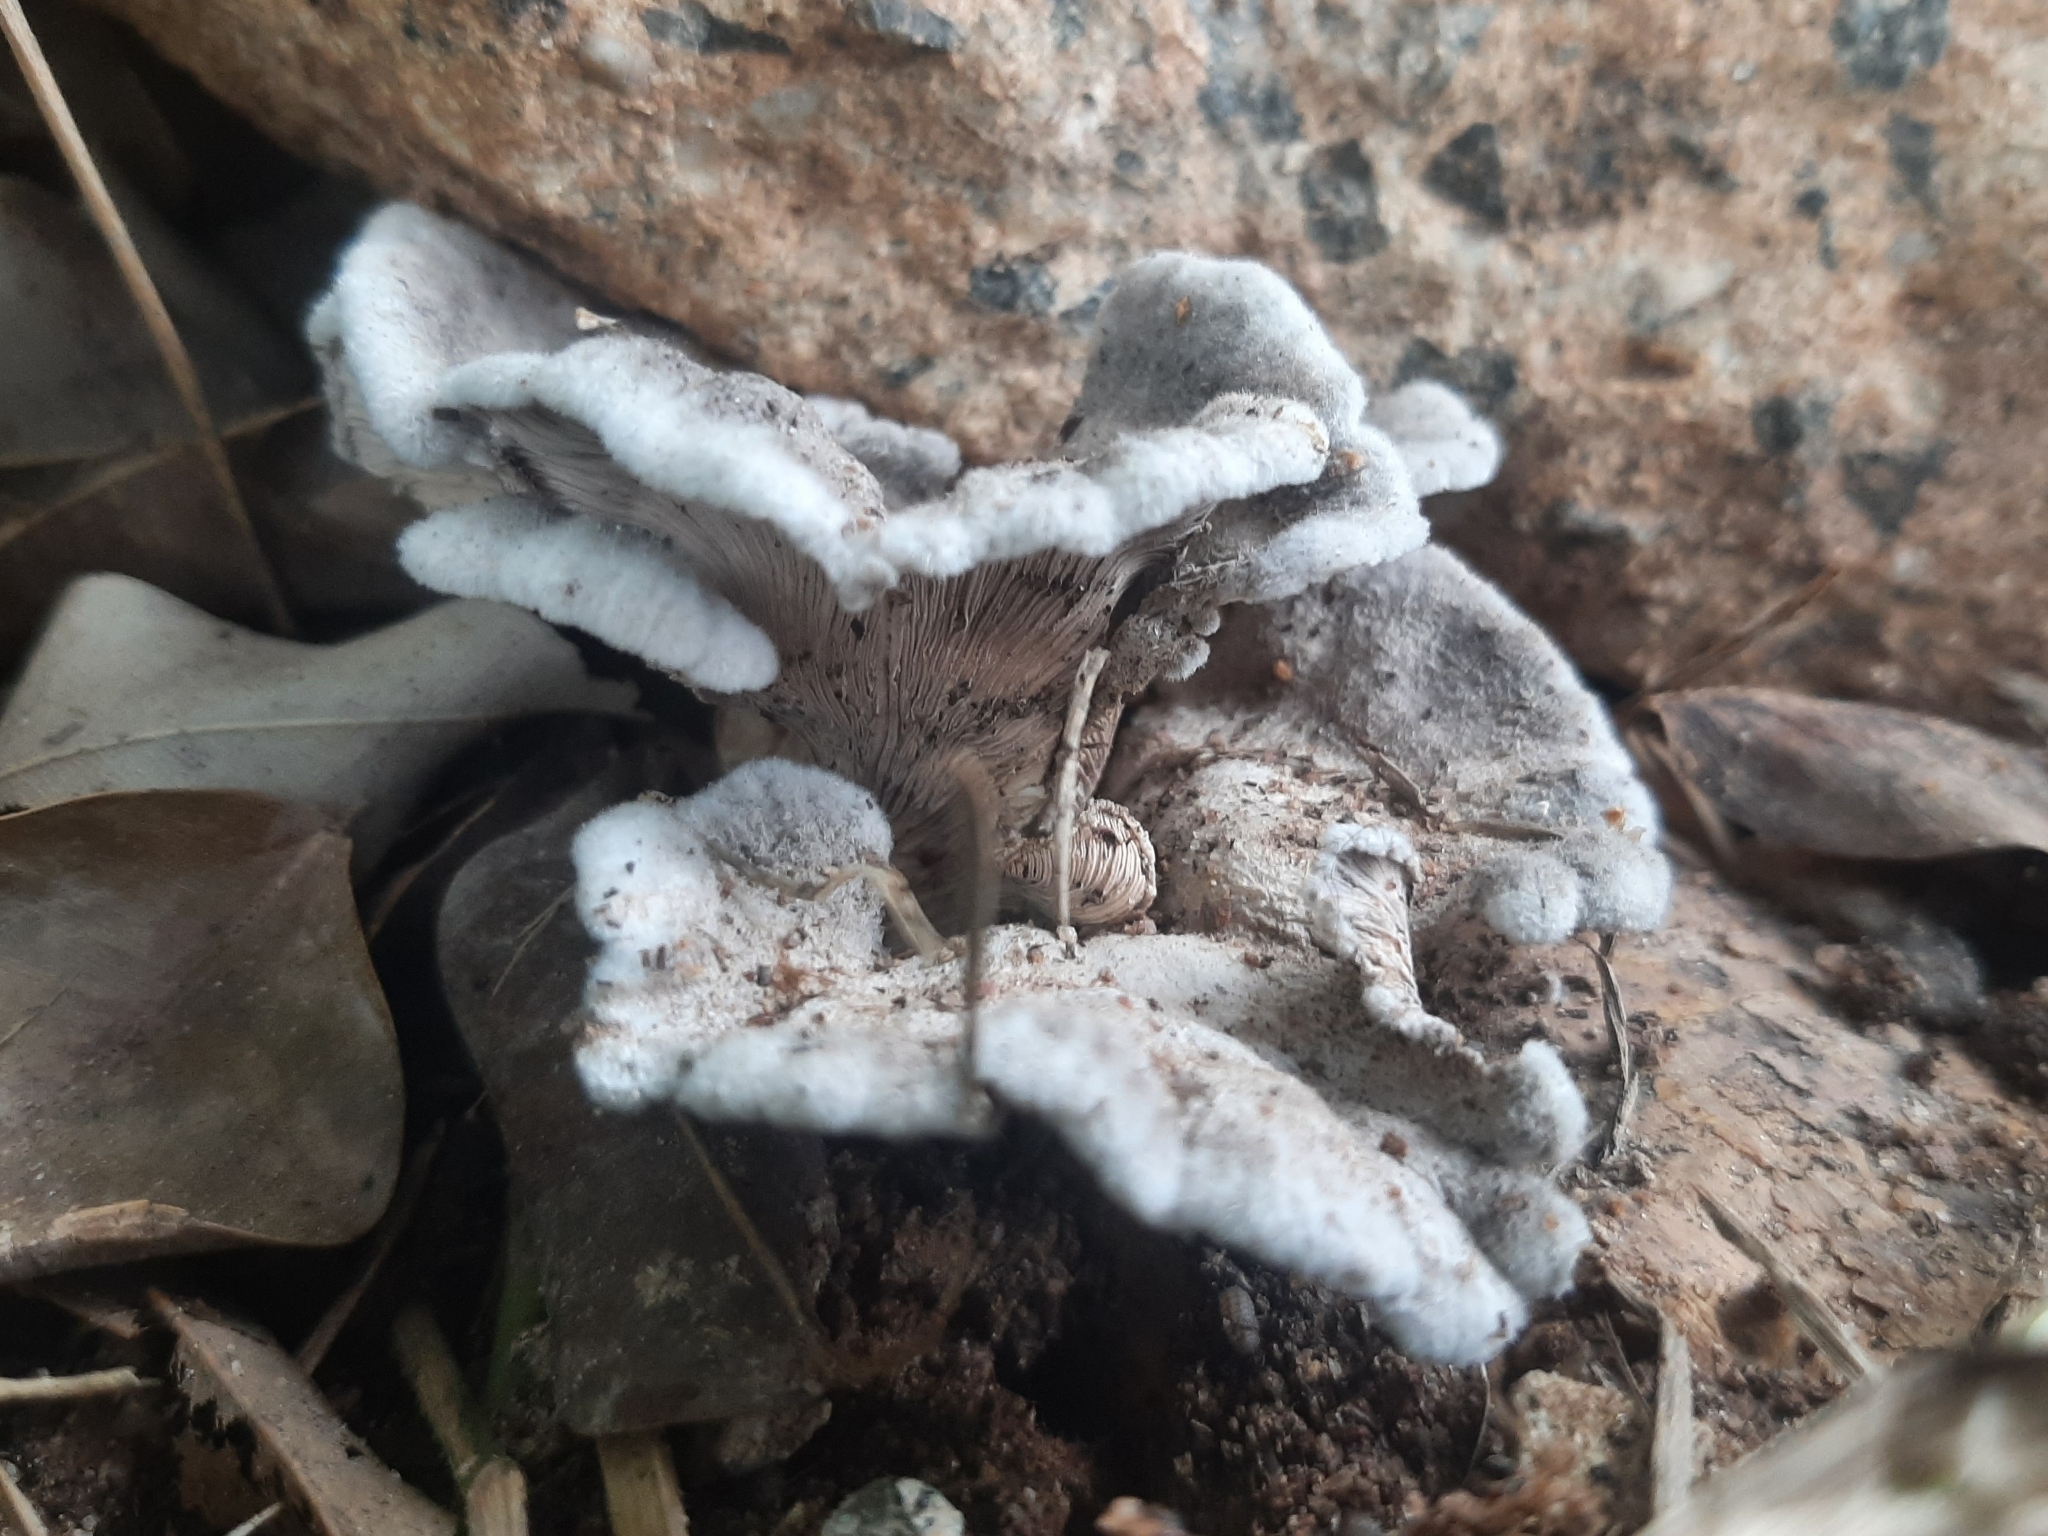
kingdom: Fungi
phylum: Basidiomycota
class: Agaricomycetes
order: Agaricales
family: Schizophyllaceae
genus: Schizophyllum
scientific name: Schizophyllum commune
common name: Common porecrust
